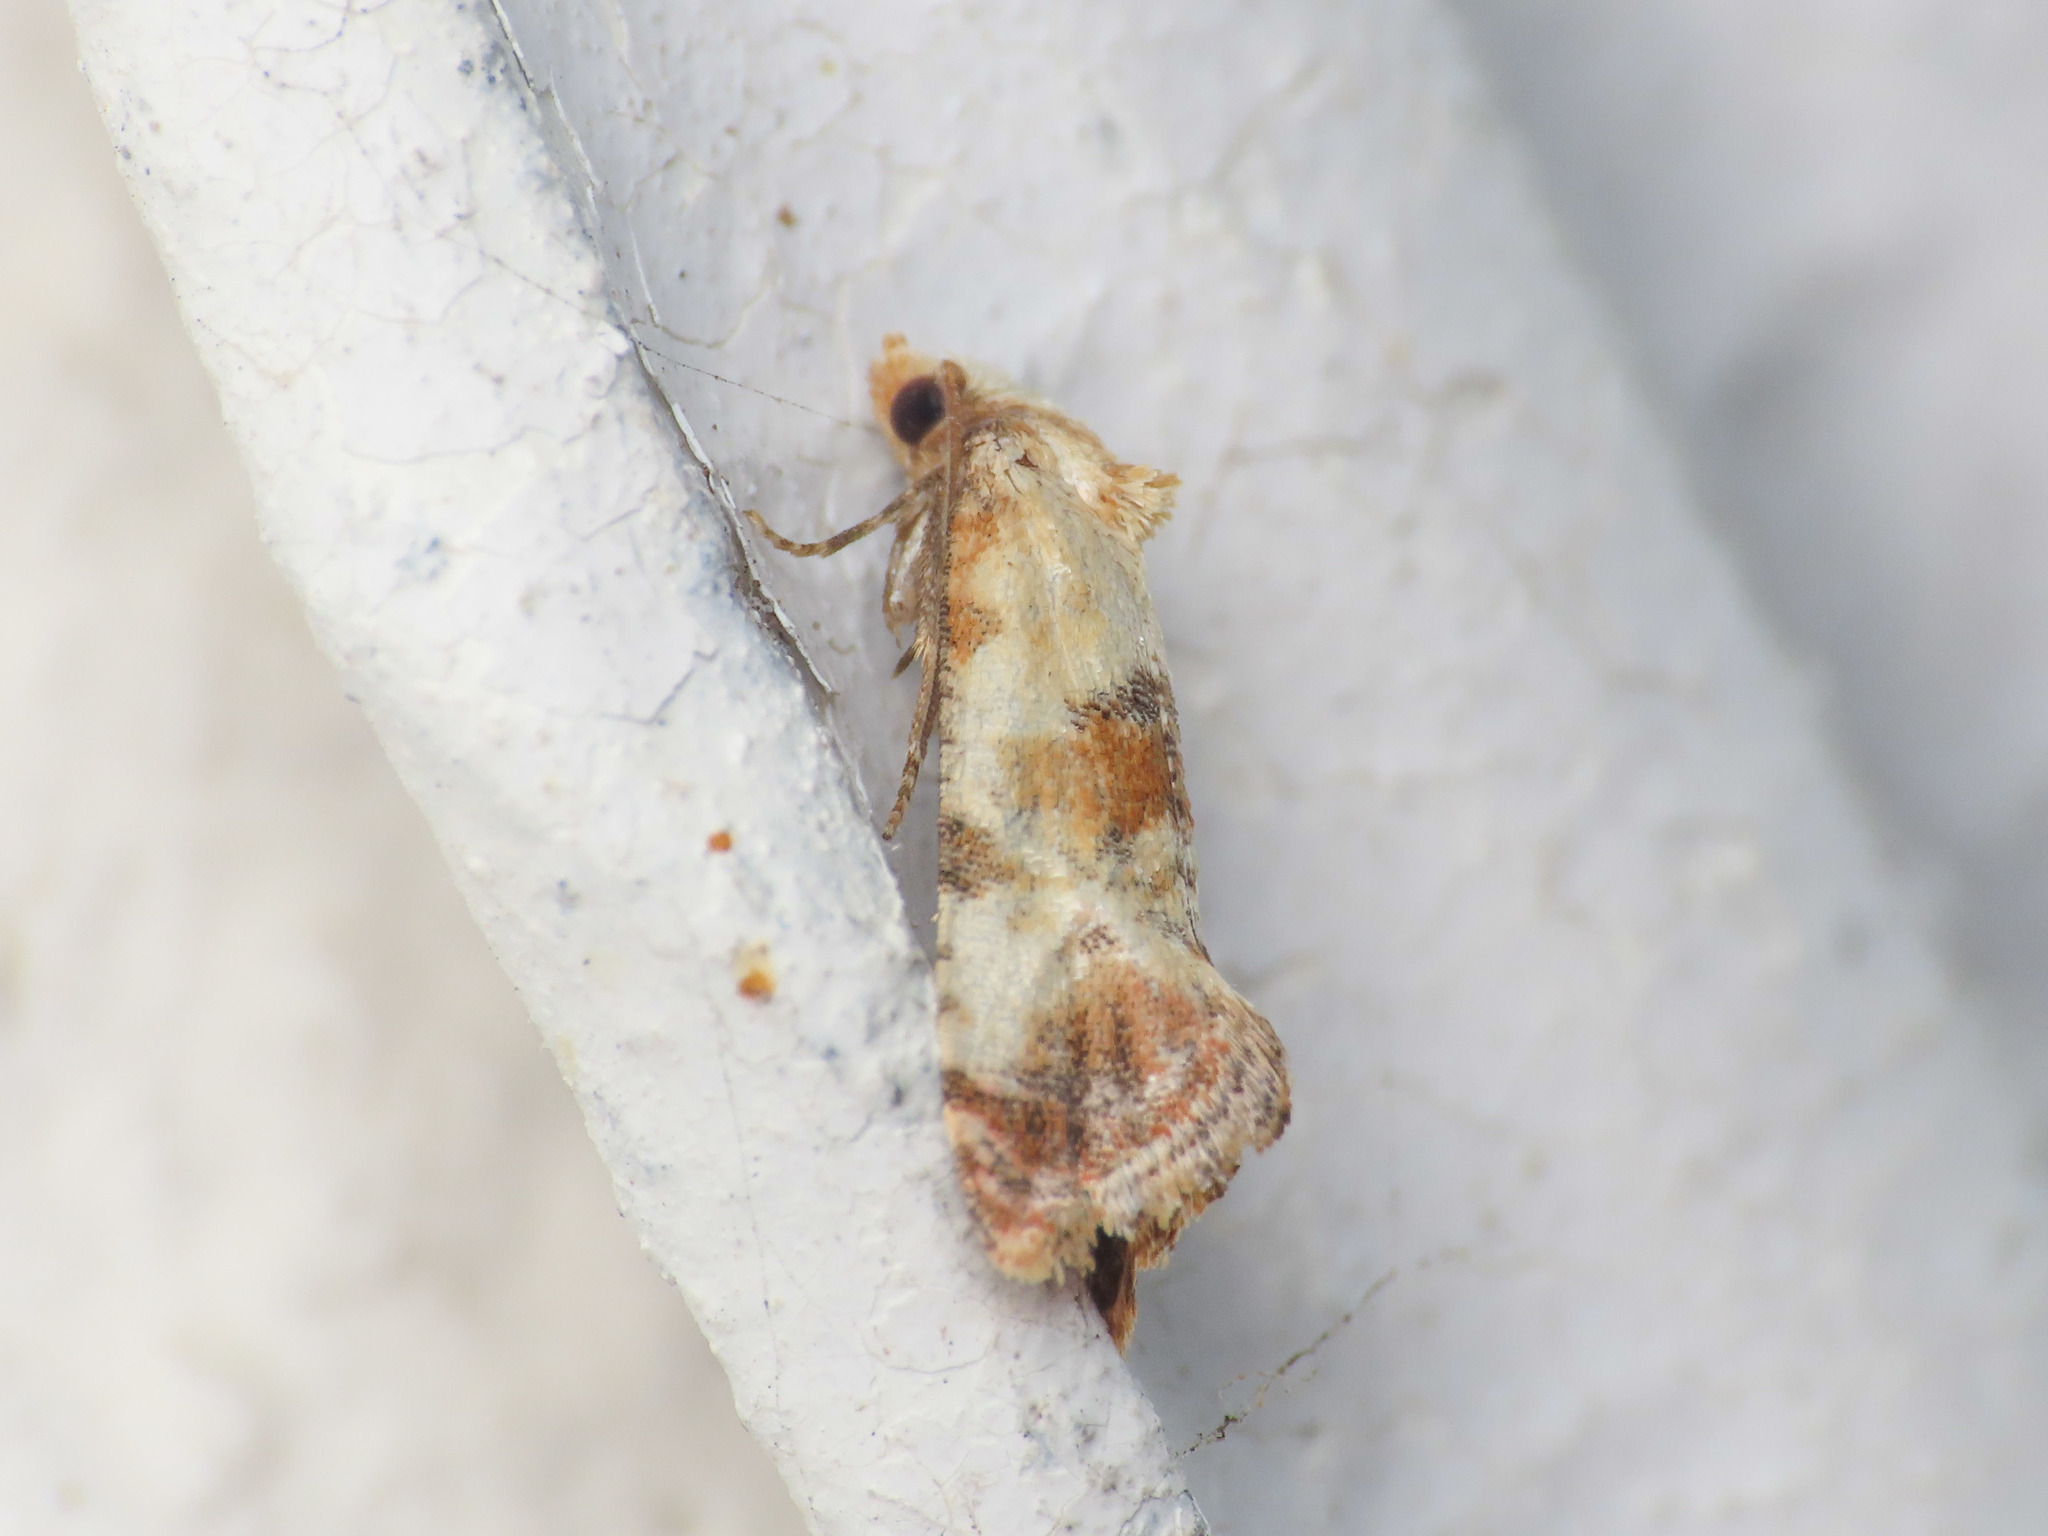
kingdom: Animalia
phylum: Arthropoda
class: Insecta
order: Lepidoptera
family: Tortricidae
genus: Cochylis
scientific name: Cochylis Neocochylis millierana
